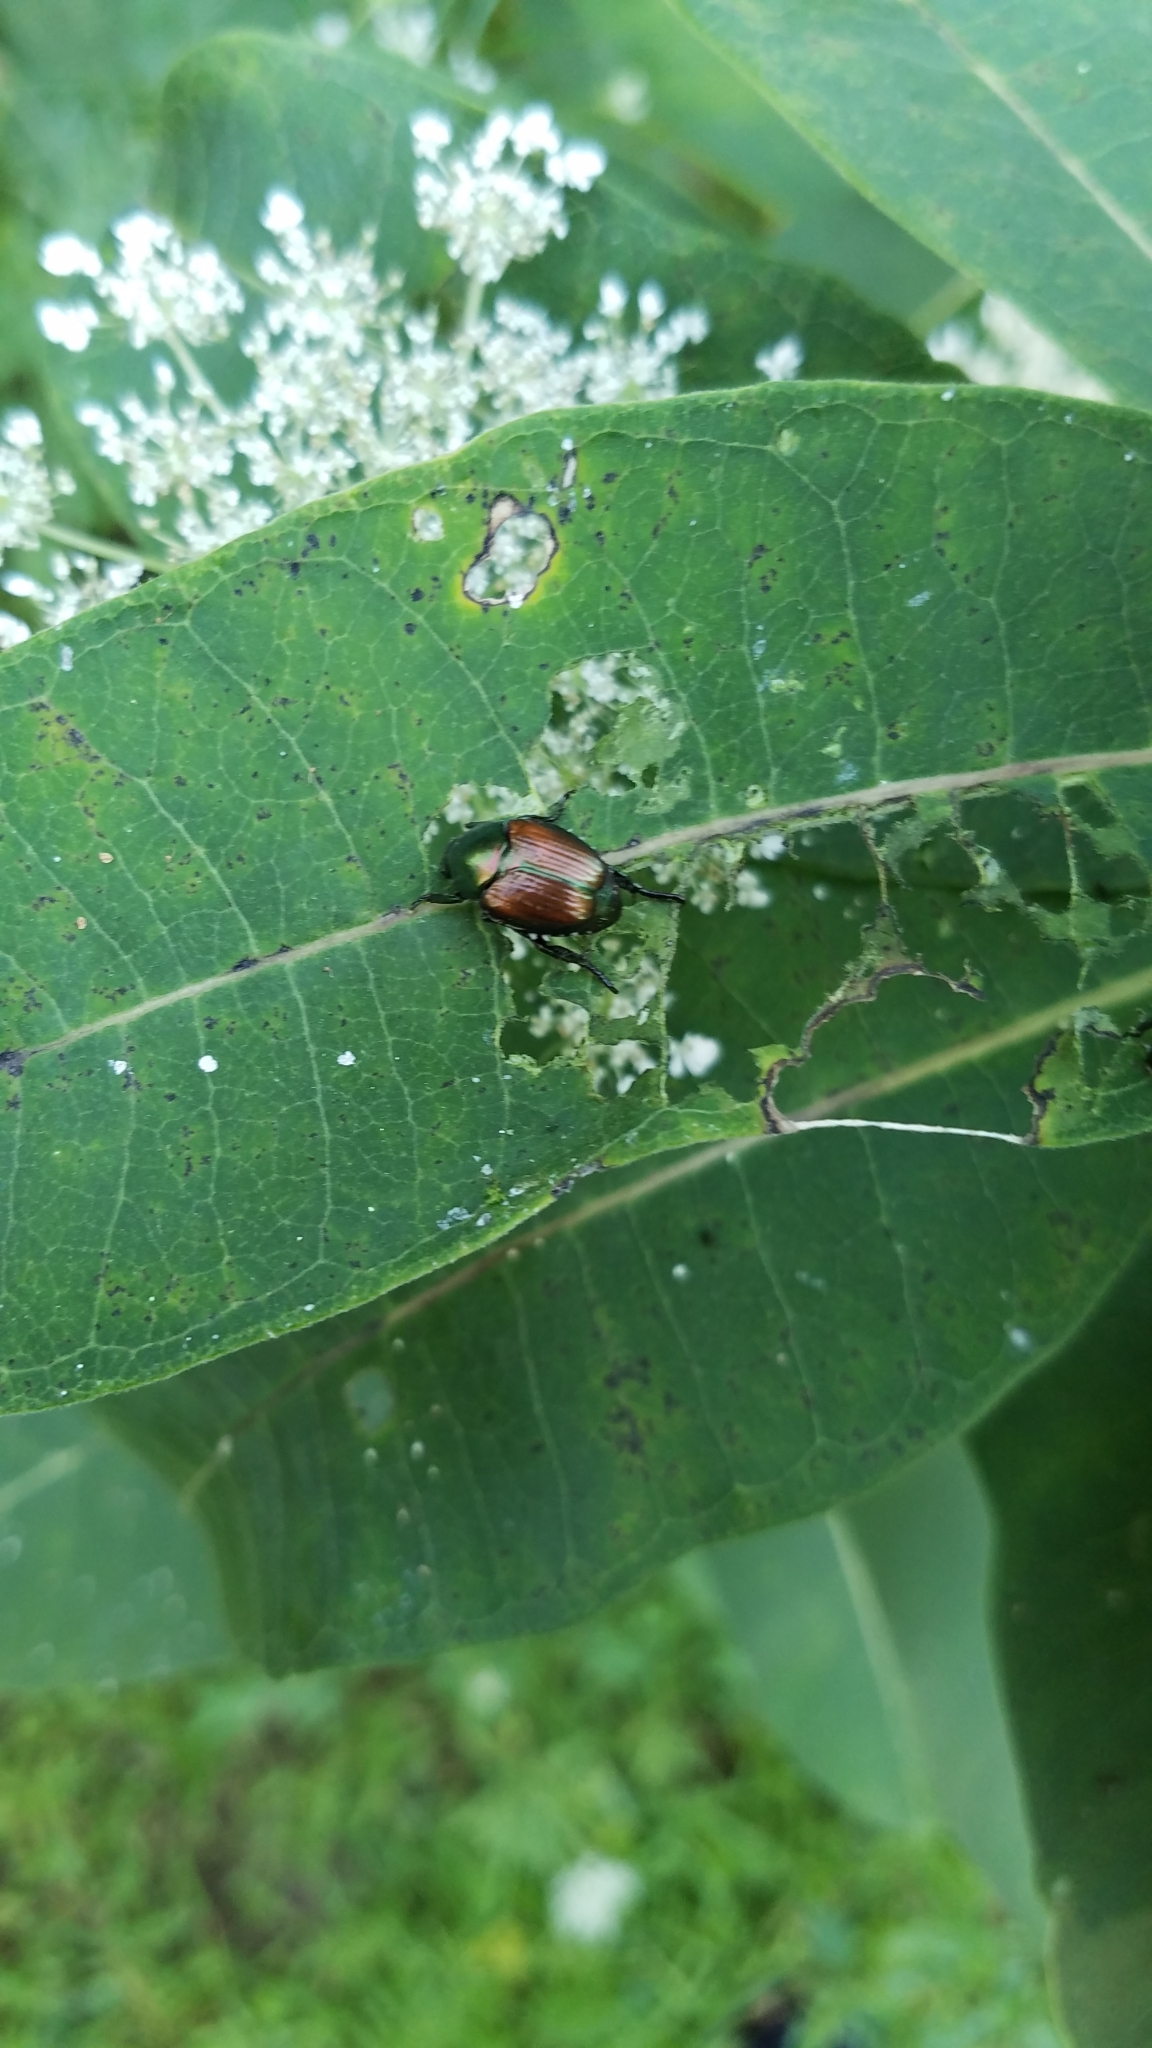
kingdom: Animalia
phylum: Arthropoda
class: Insecta
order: Coleoptera
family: Scarabaeidae
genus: Popillia
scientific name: Popillia japonica
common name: Japanese beetle
